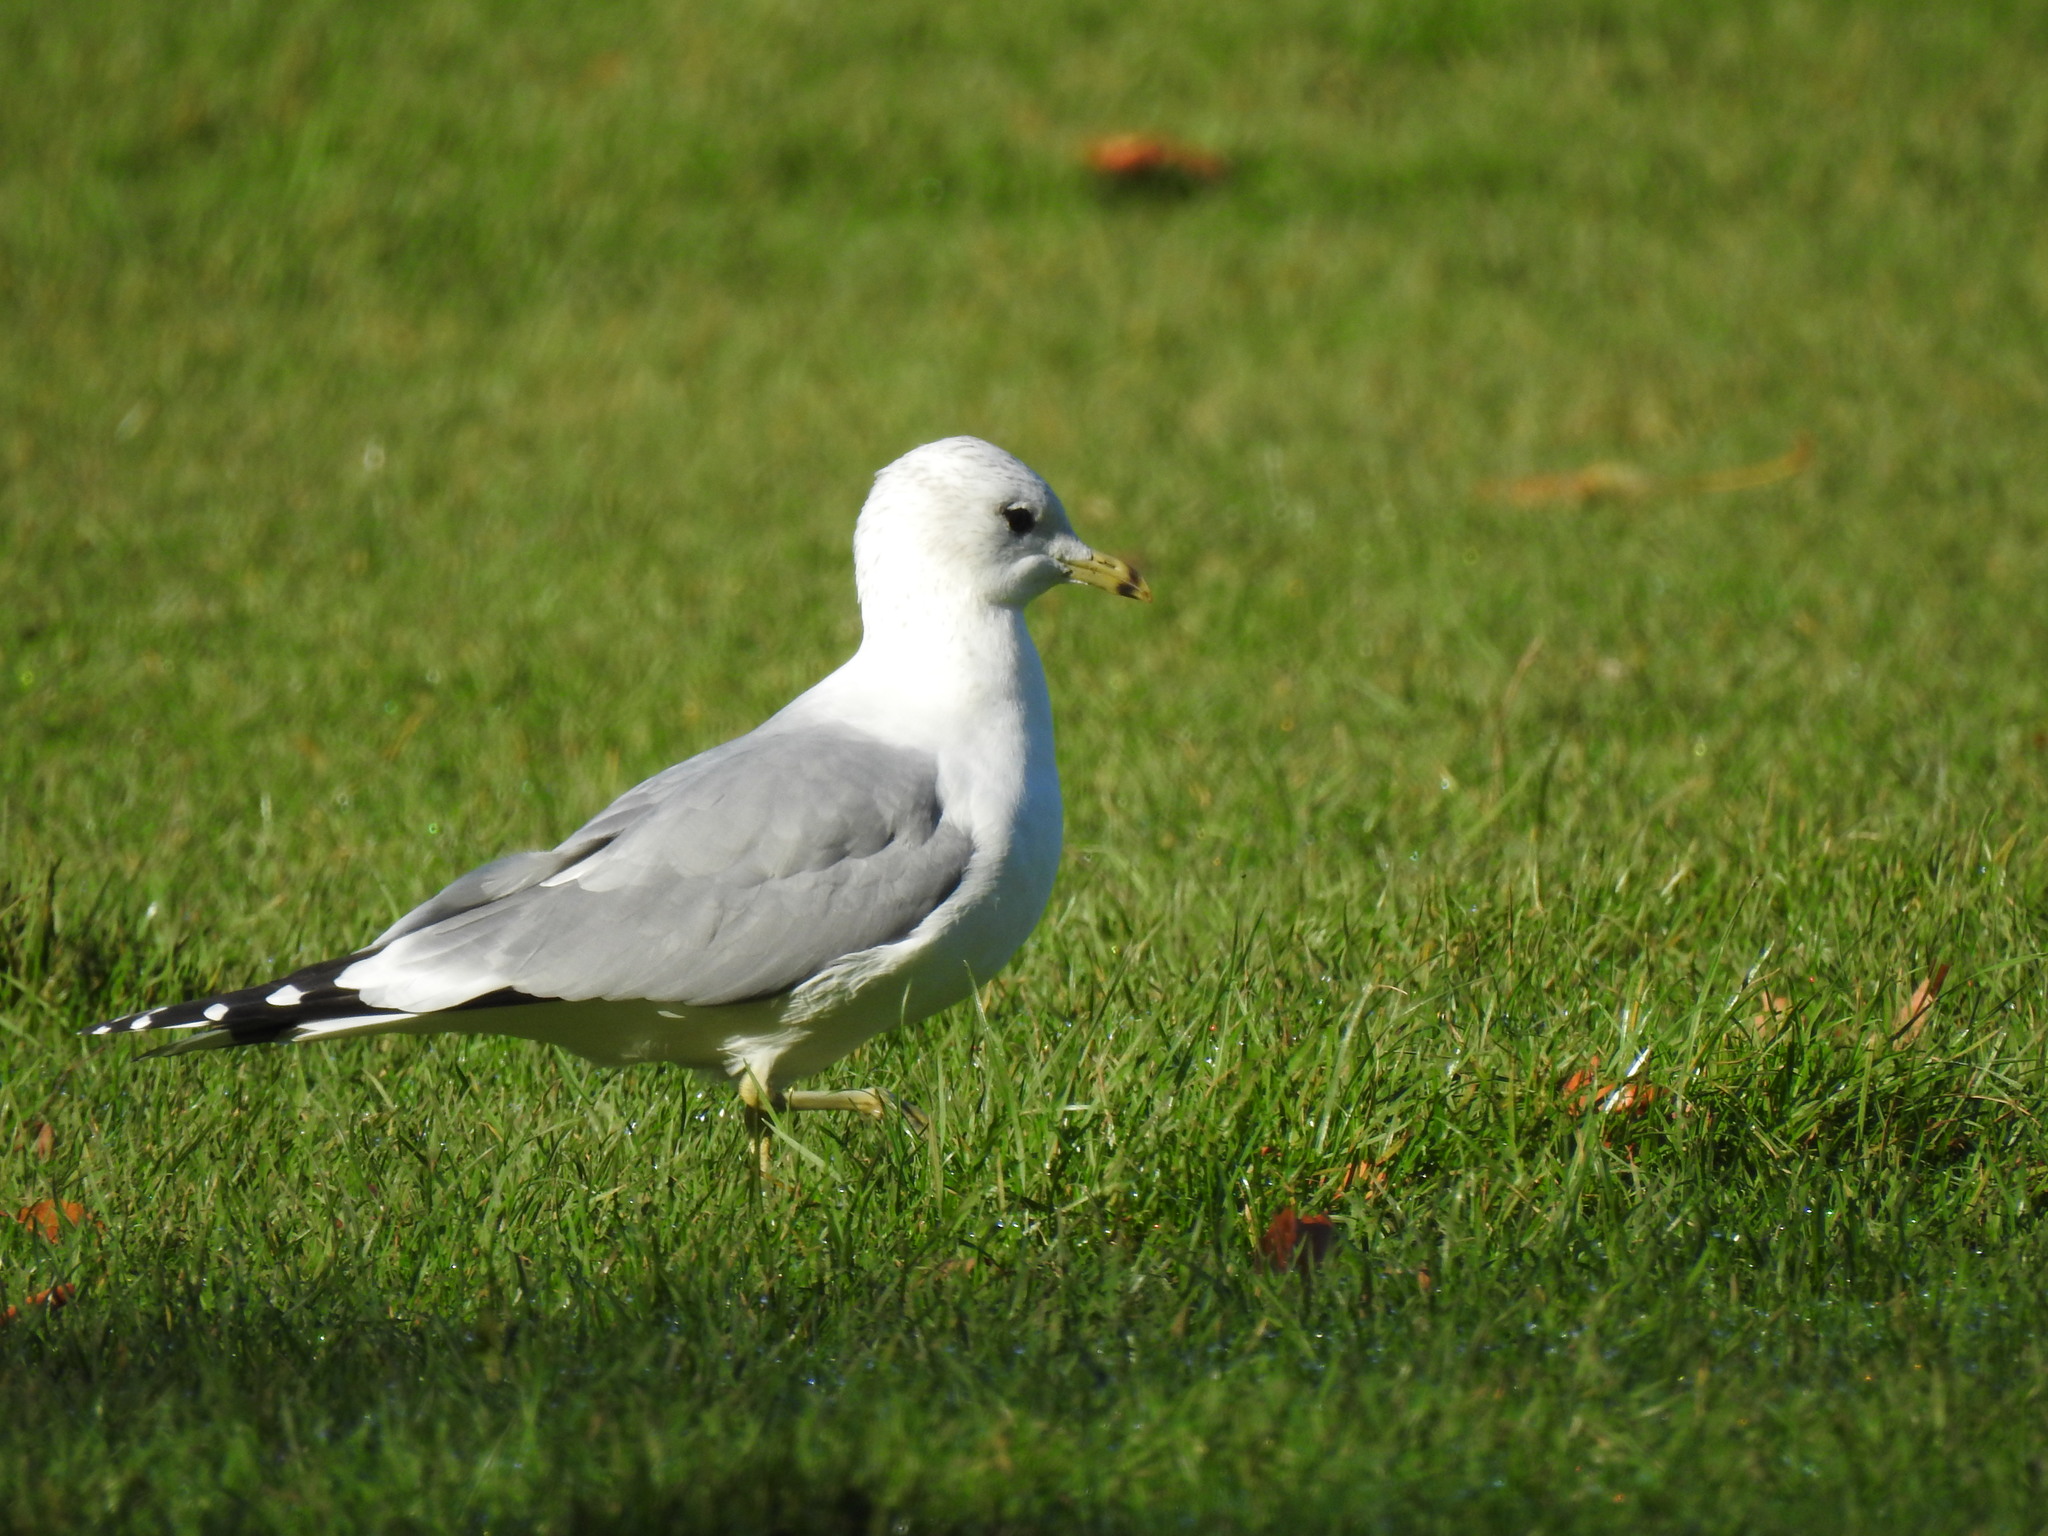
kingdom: Animalia
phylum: Chordata
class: Aves
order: Charadriiformes
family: Laridae
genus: Larus
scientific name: Larus canus
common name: Mew gull
